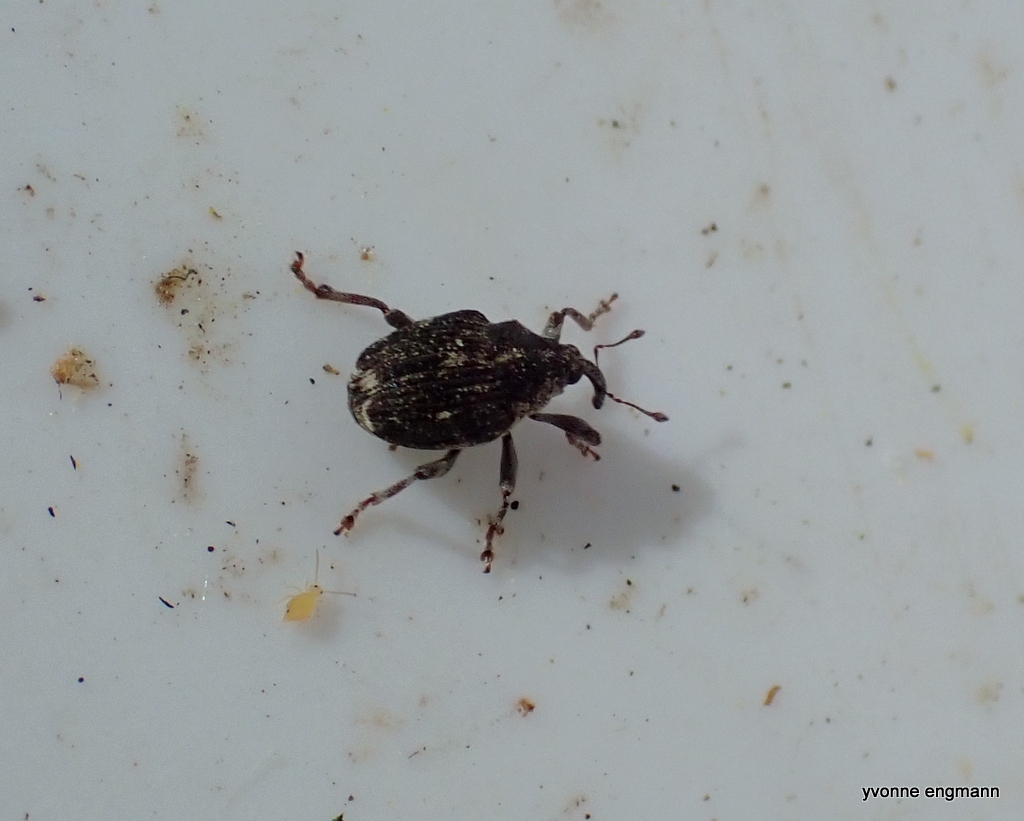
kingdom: Animalia
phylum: Arthropoda
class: Insecta
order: Coleoptera
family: Curculionidae
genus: Nedyus
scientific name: Nedyus quadrimaculatus
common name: Small nettle weevil
